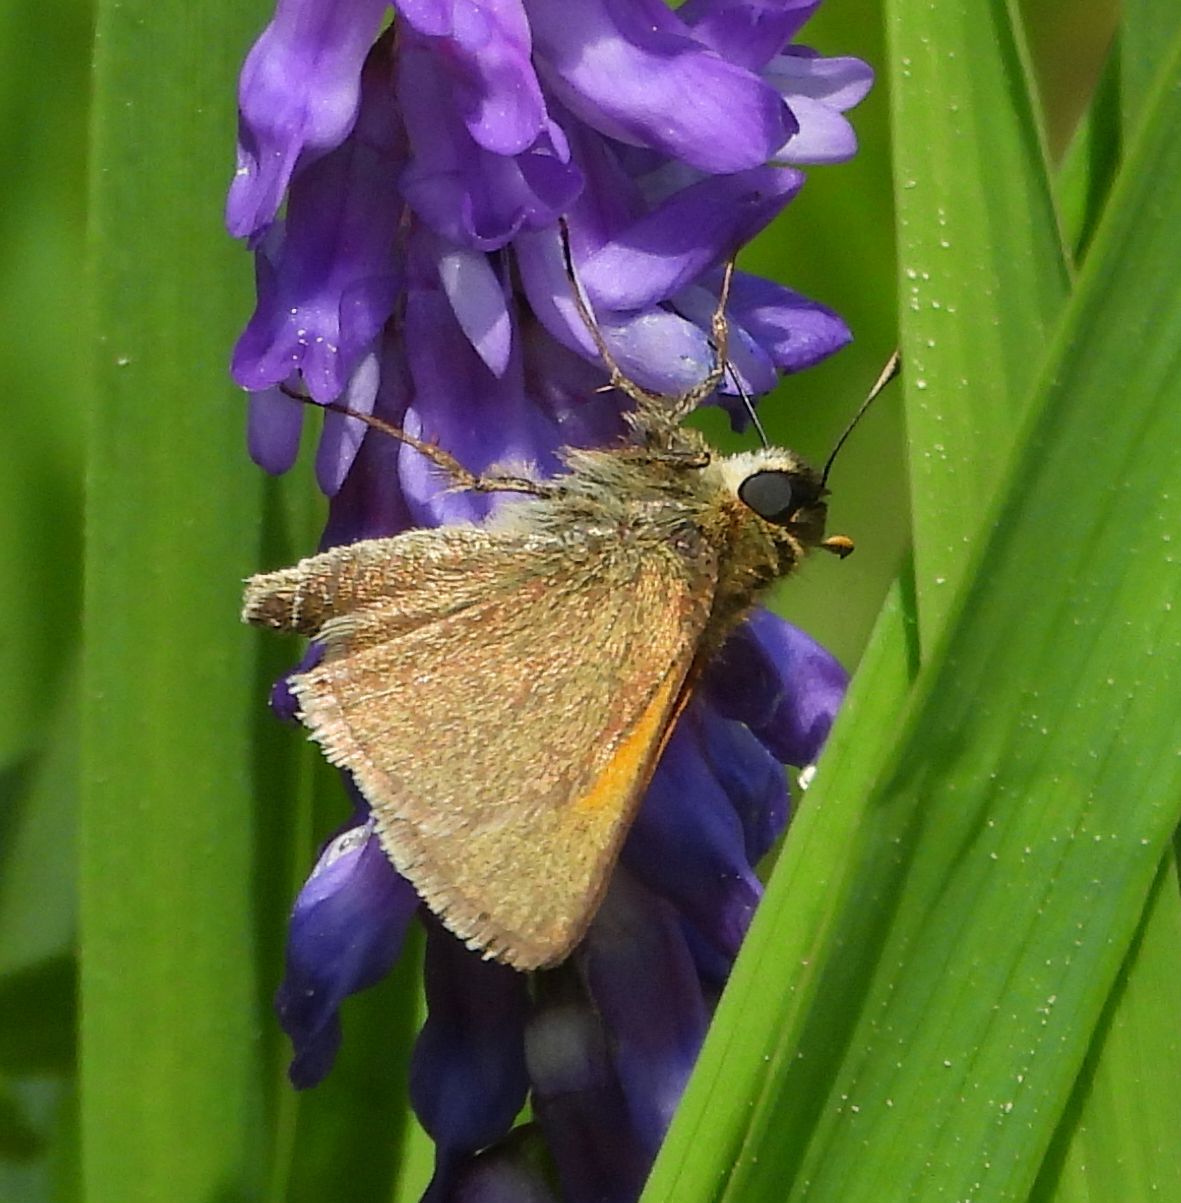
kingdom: Animalia
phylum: Arthropoda
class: Insecta
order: Lepidoptera
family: Hesperiidae
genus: Polites
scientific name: Polites themistocles
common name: Tawny-edged skipper
